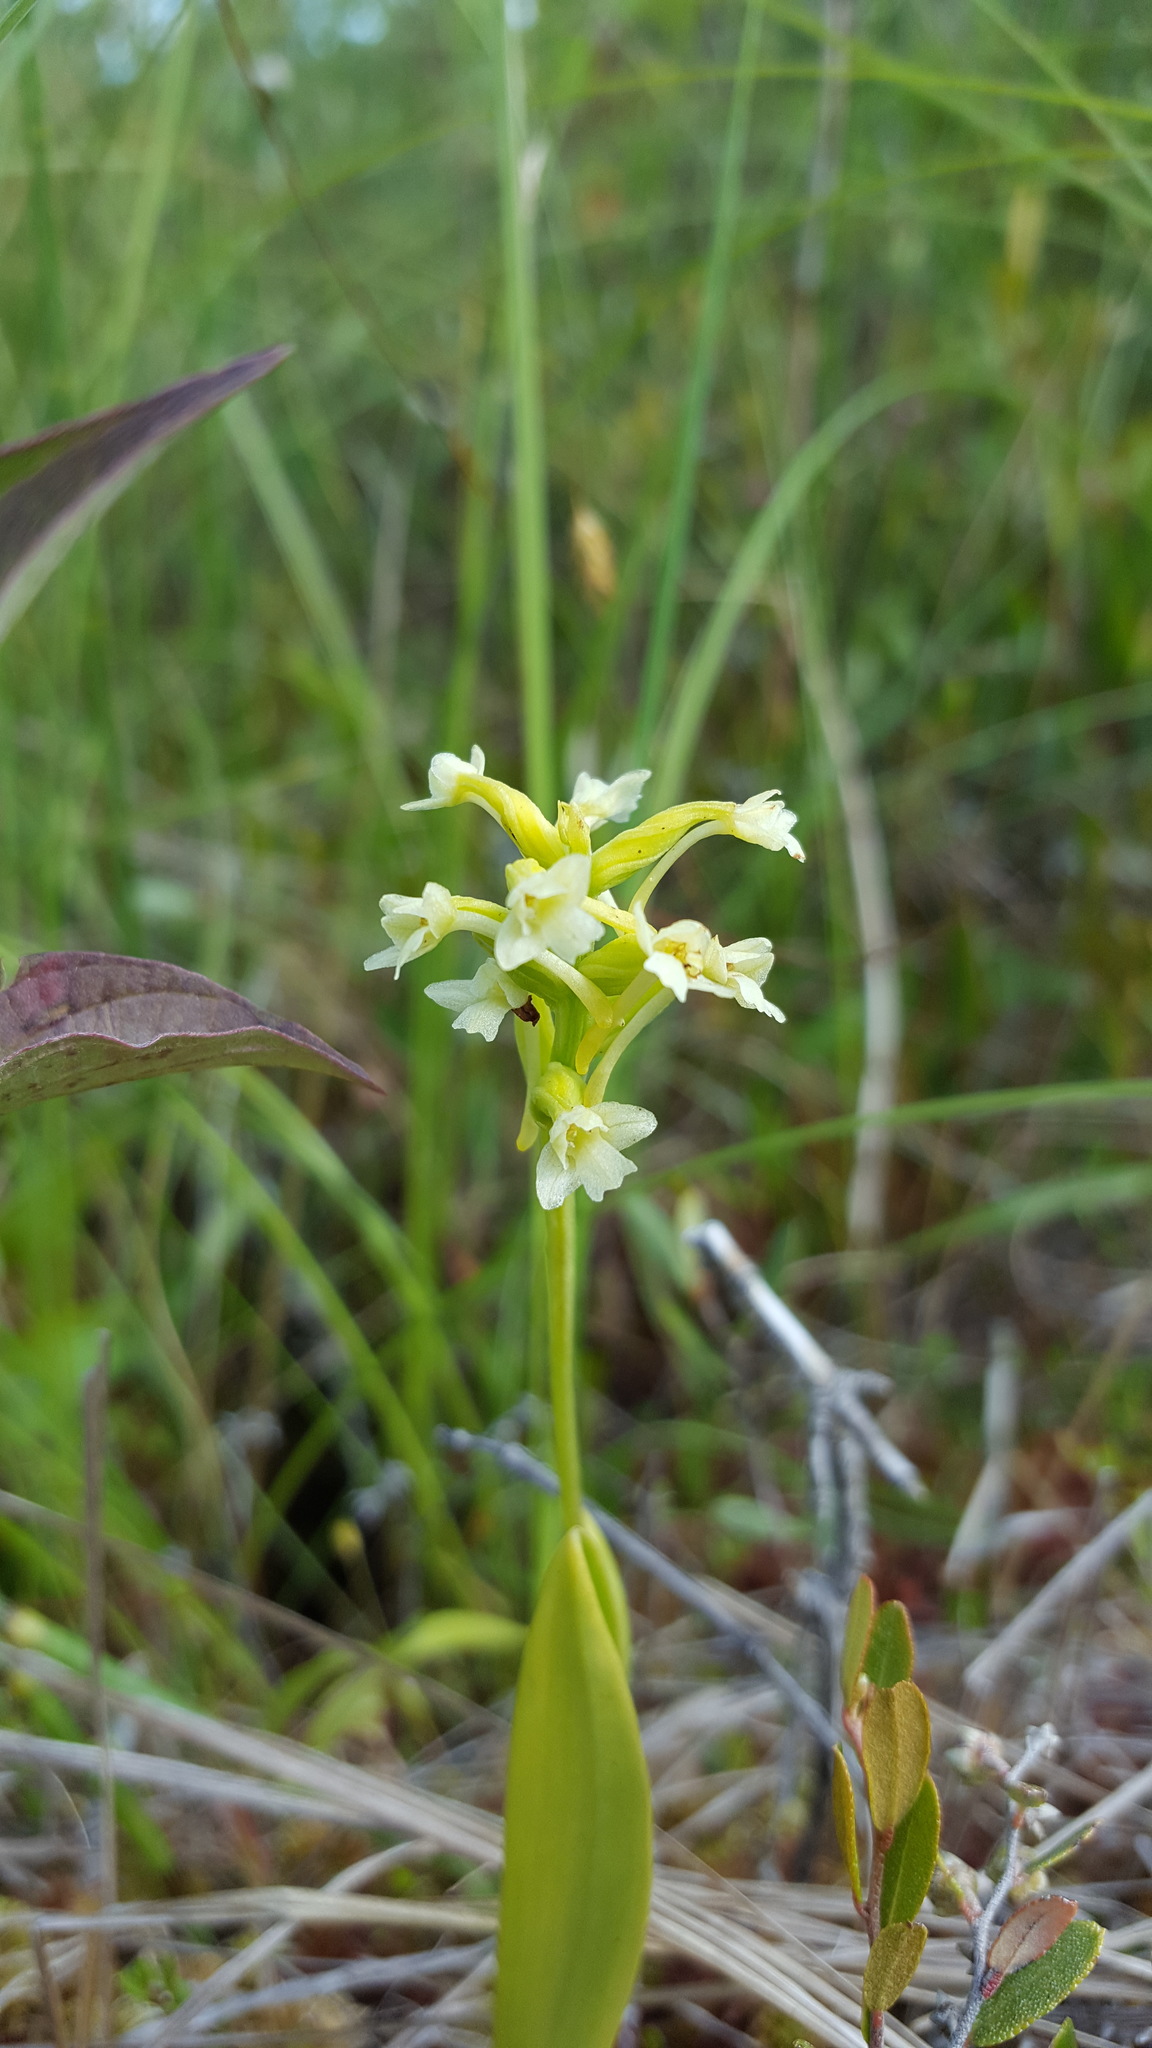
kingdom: Plantae
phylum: Tracheophyta
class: Liliopsida
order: Asparagales
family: Orchidaceae
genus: Platanthera
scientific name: Platanthera clavellata
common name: Club-spur orchid
